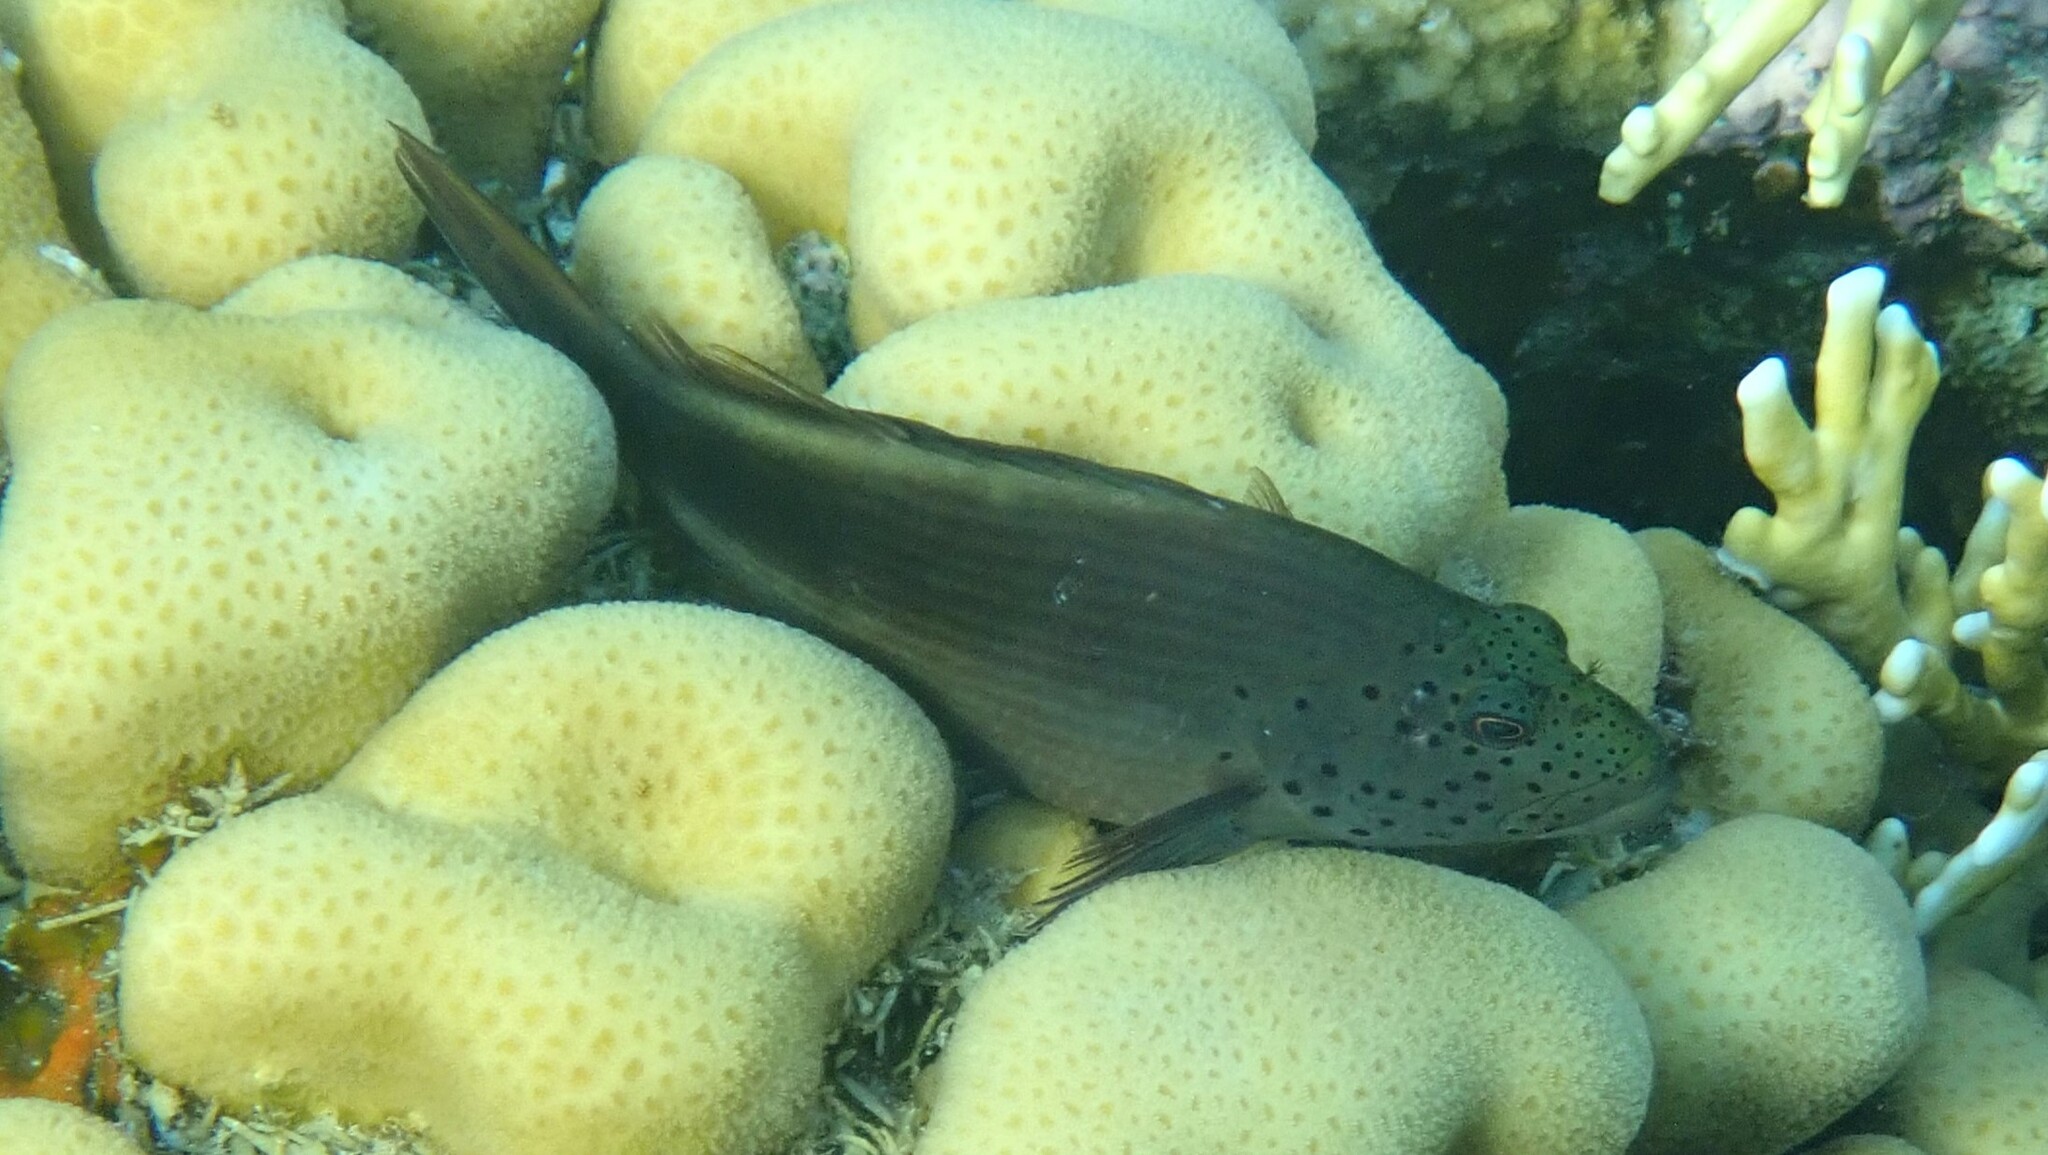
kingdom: Animalia
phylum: Chordata
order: Perciformes
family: Cirrhitidae
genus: Paracirrhites
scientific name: Paracirrhites forsteri
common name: Freckled hawkfish
